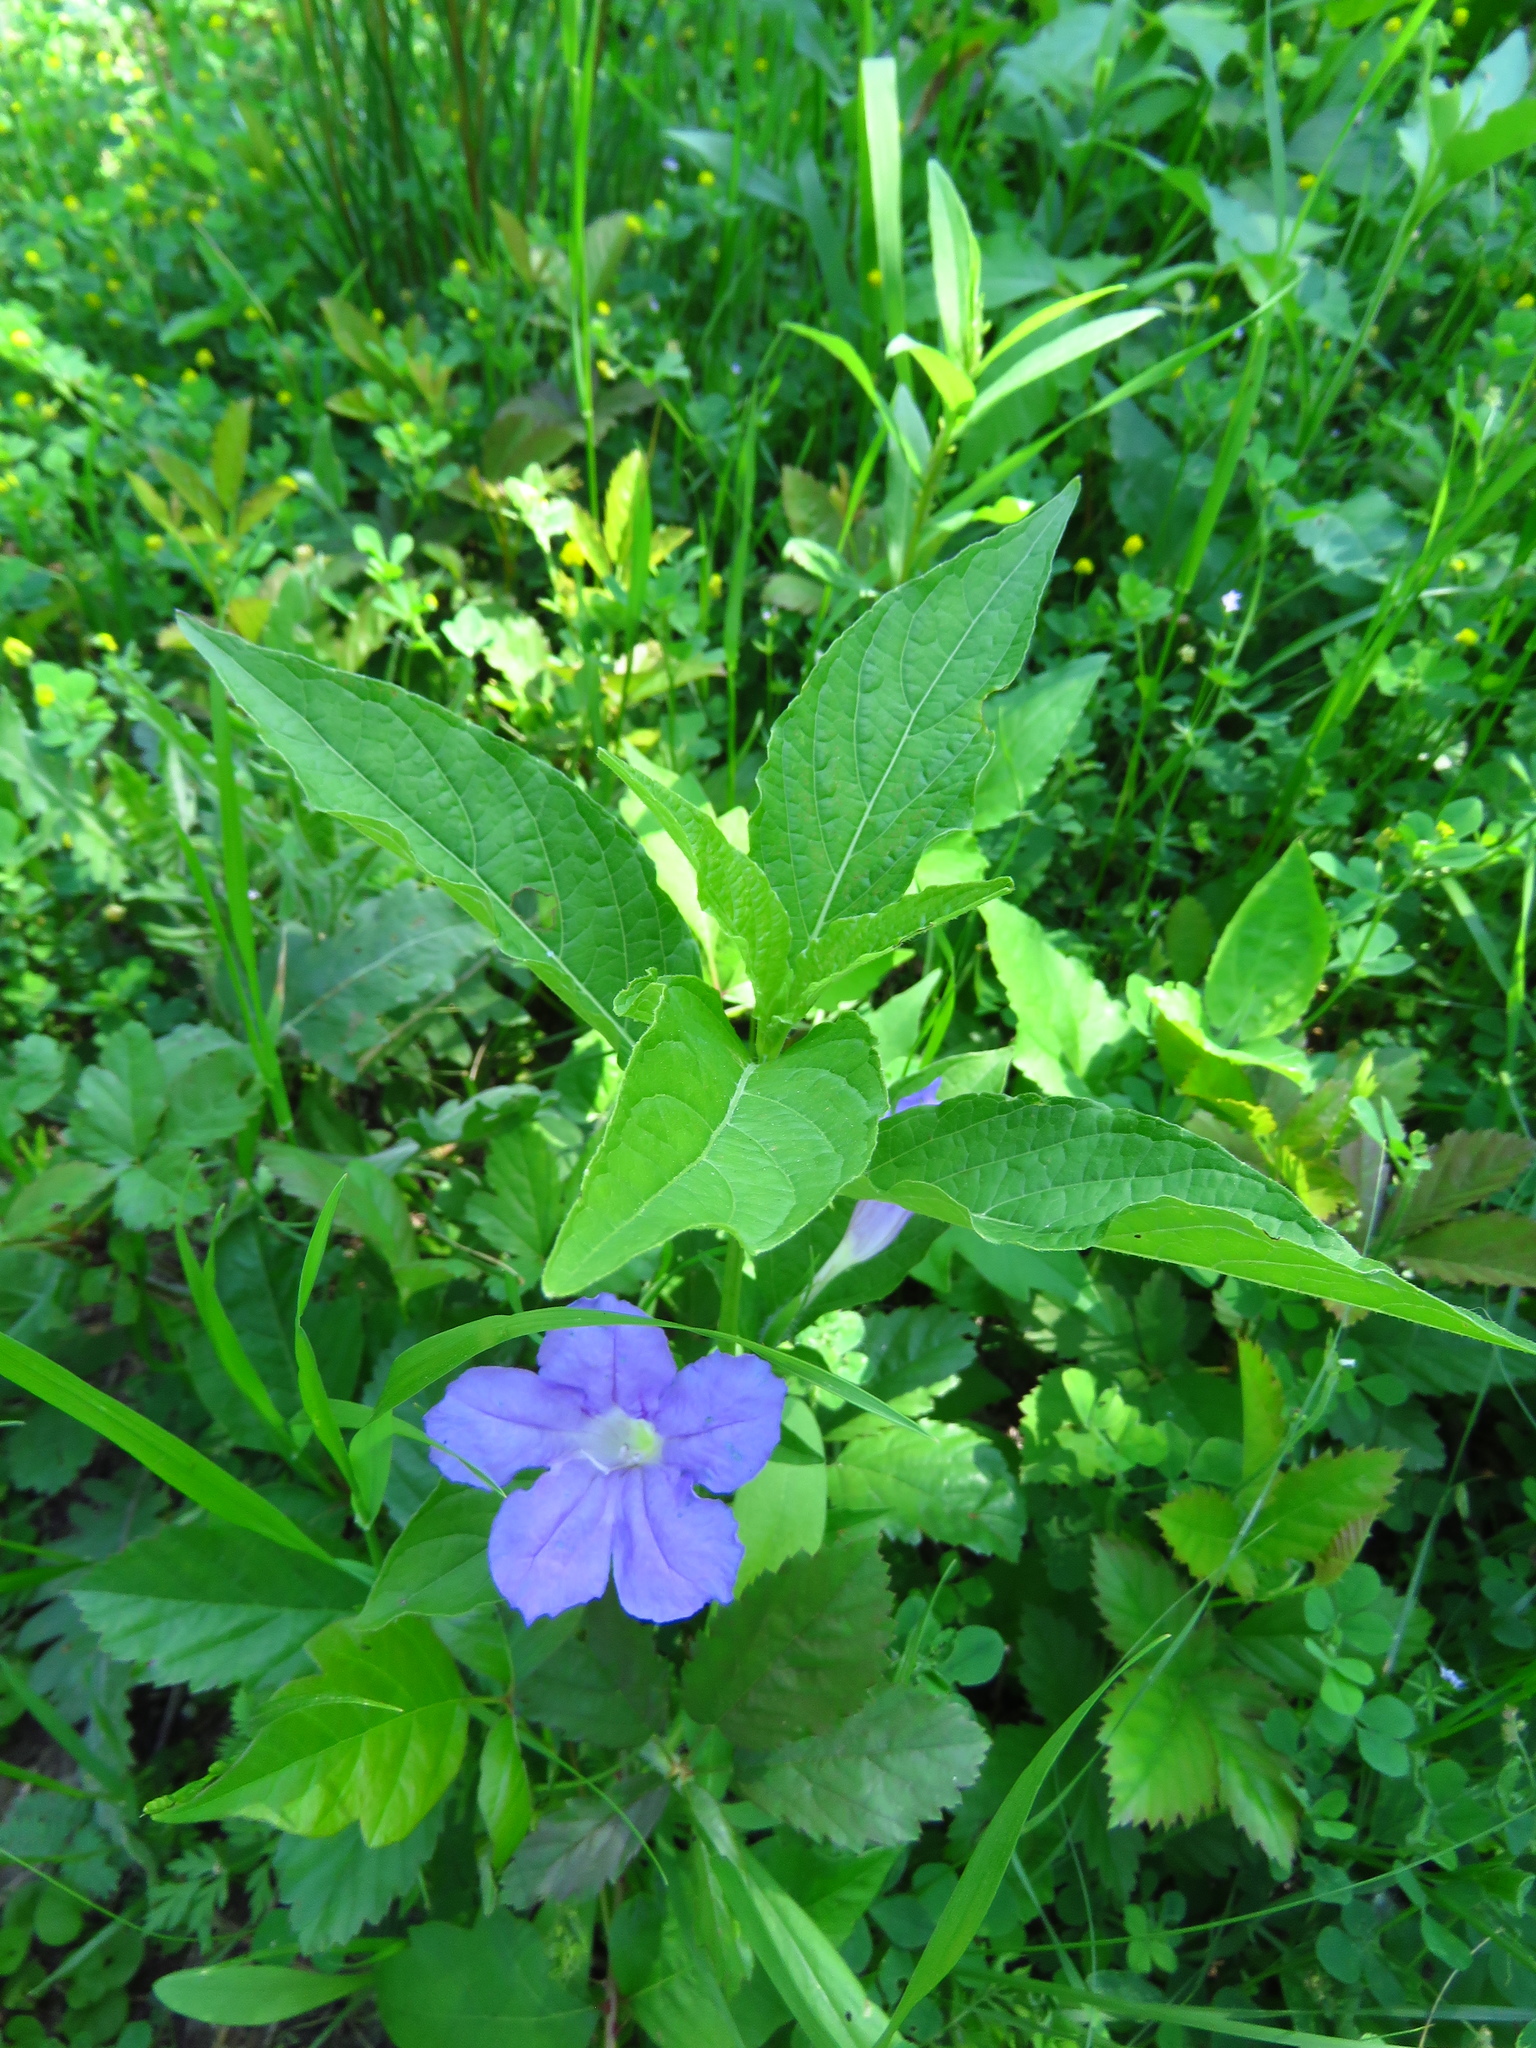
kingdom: Plantae
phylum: Tracheophyta
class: Magnoliopsida
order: Lamiales
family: Acanthaceae
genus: Ruellia
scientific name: Ruellia strepens
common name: Limestone wild petunia
